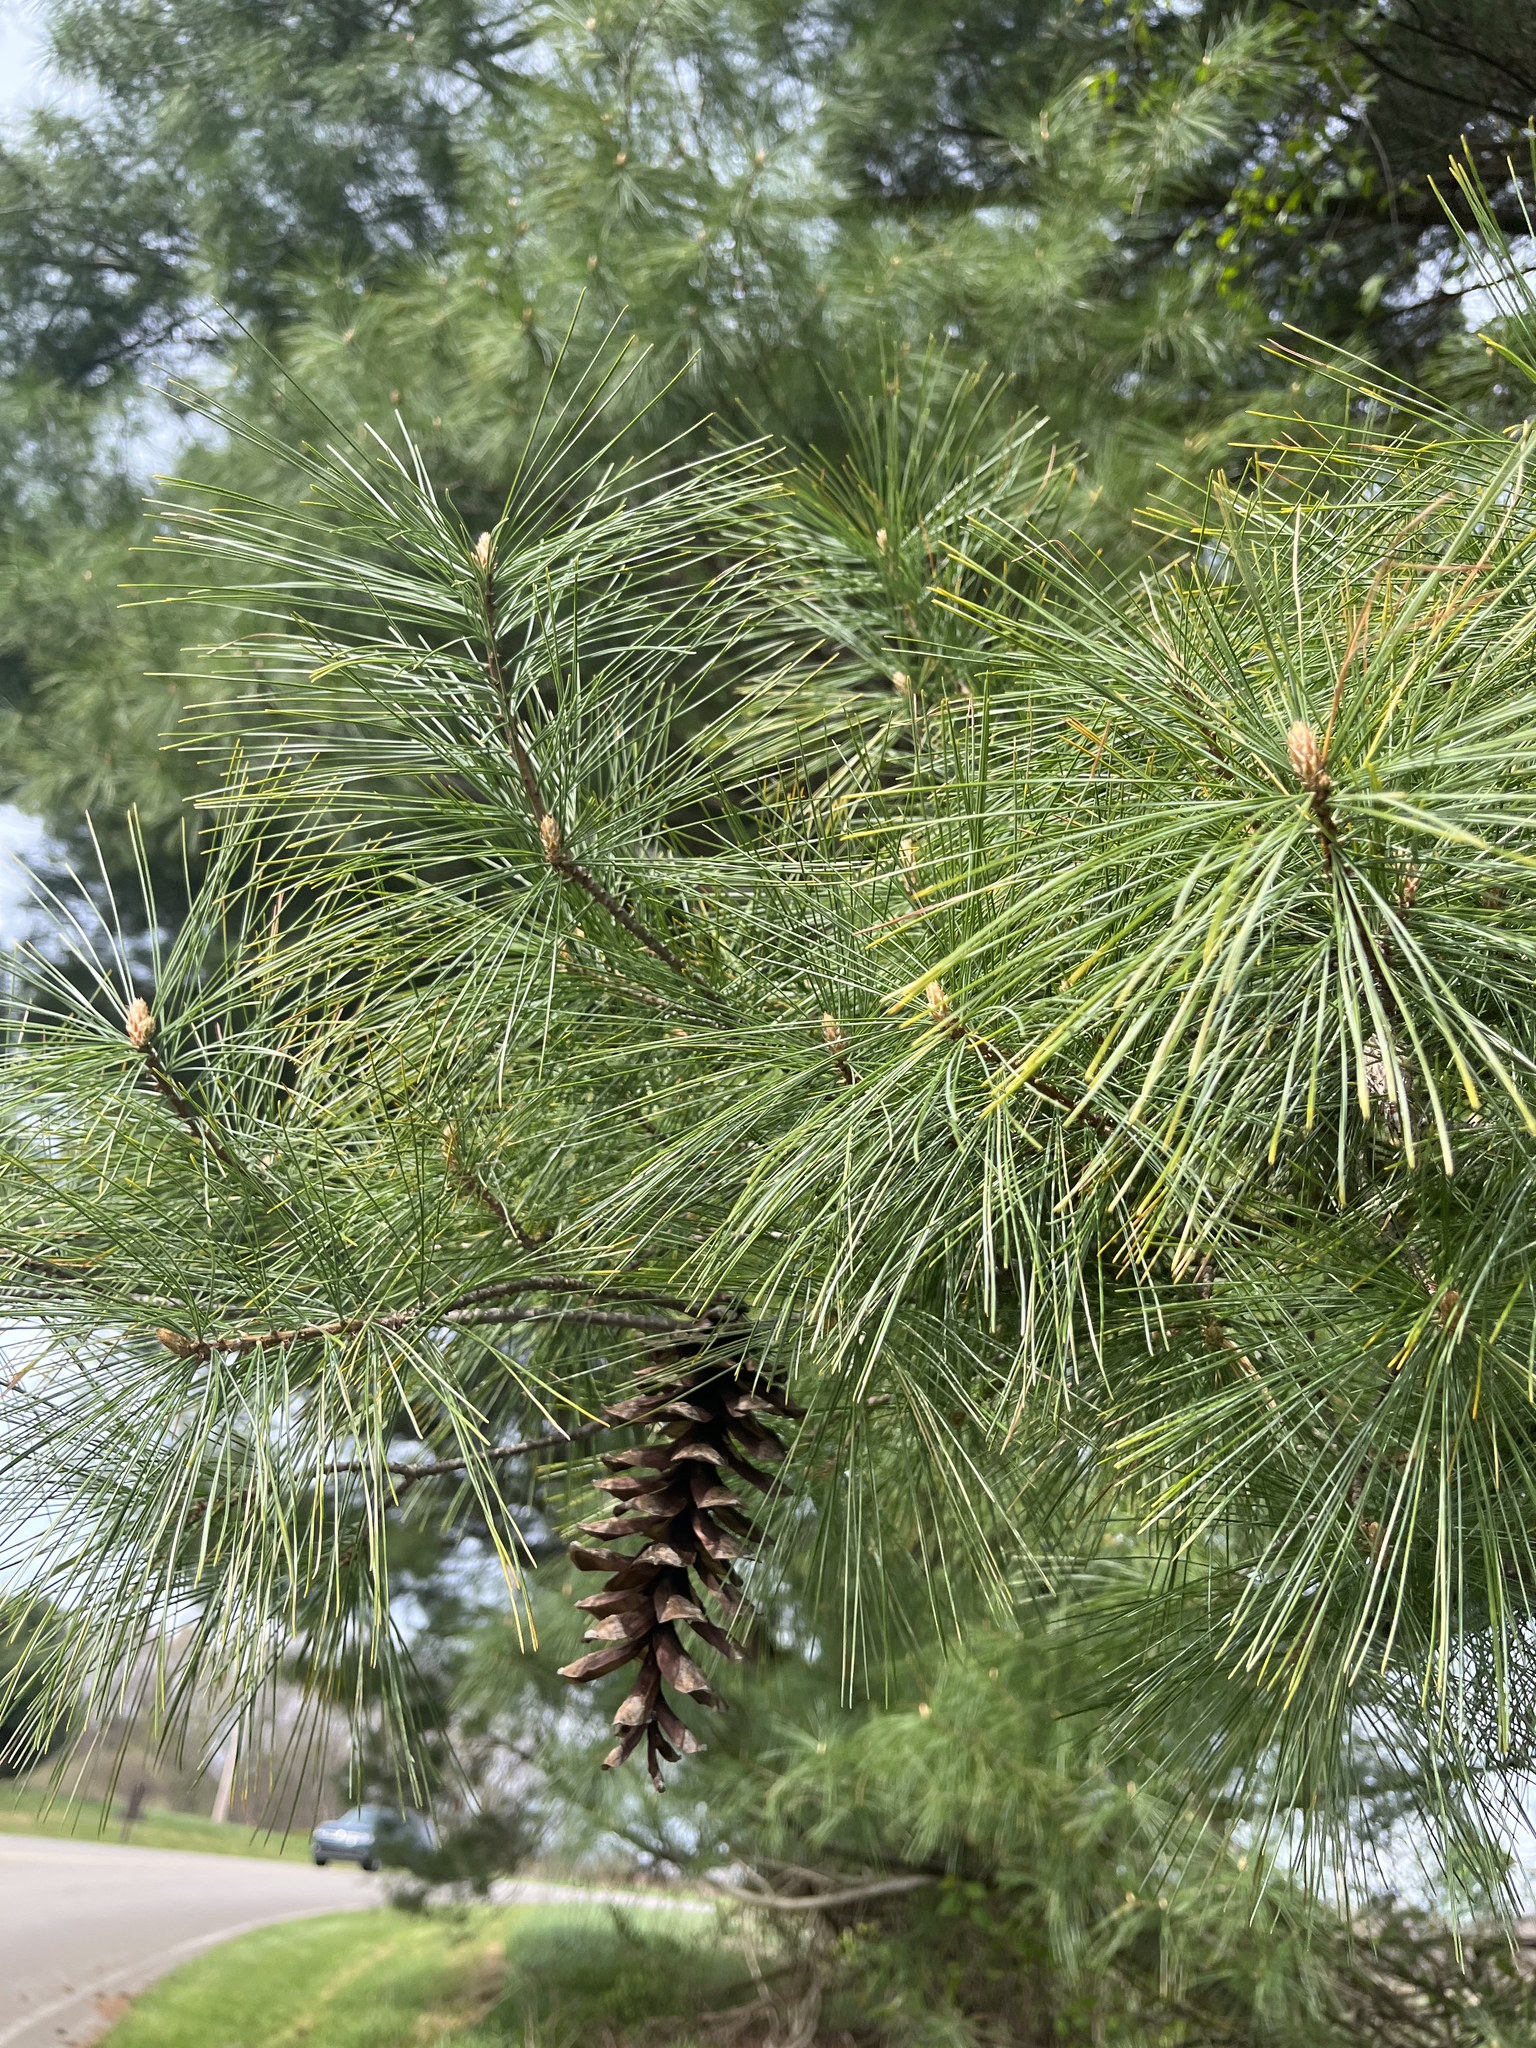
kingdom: Plantae
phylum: Tracheophyta
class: Pinopsida
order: Pinales
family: Pinaceae
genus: Pinus
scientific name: Pinus strobus
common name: Weymouth pine
